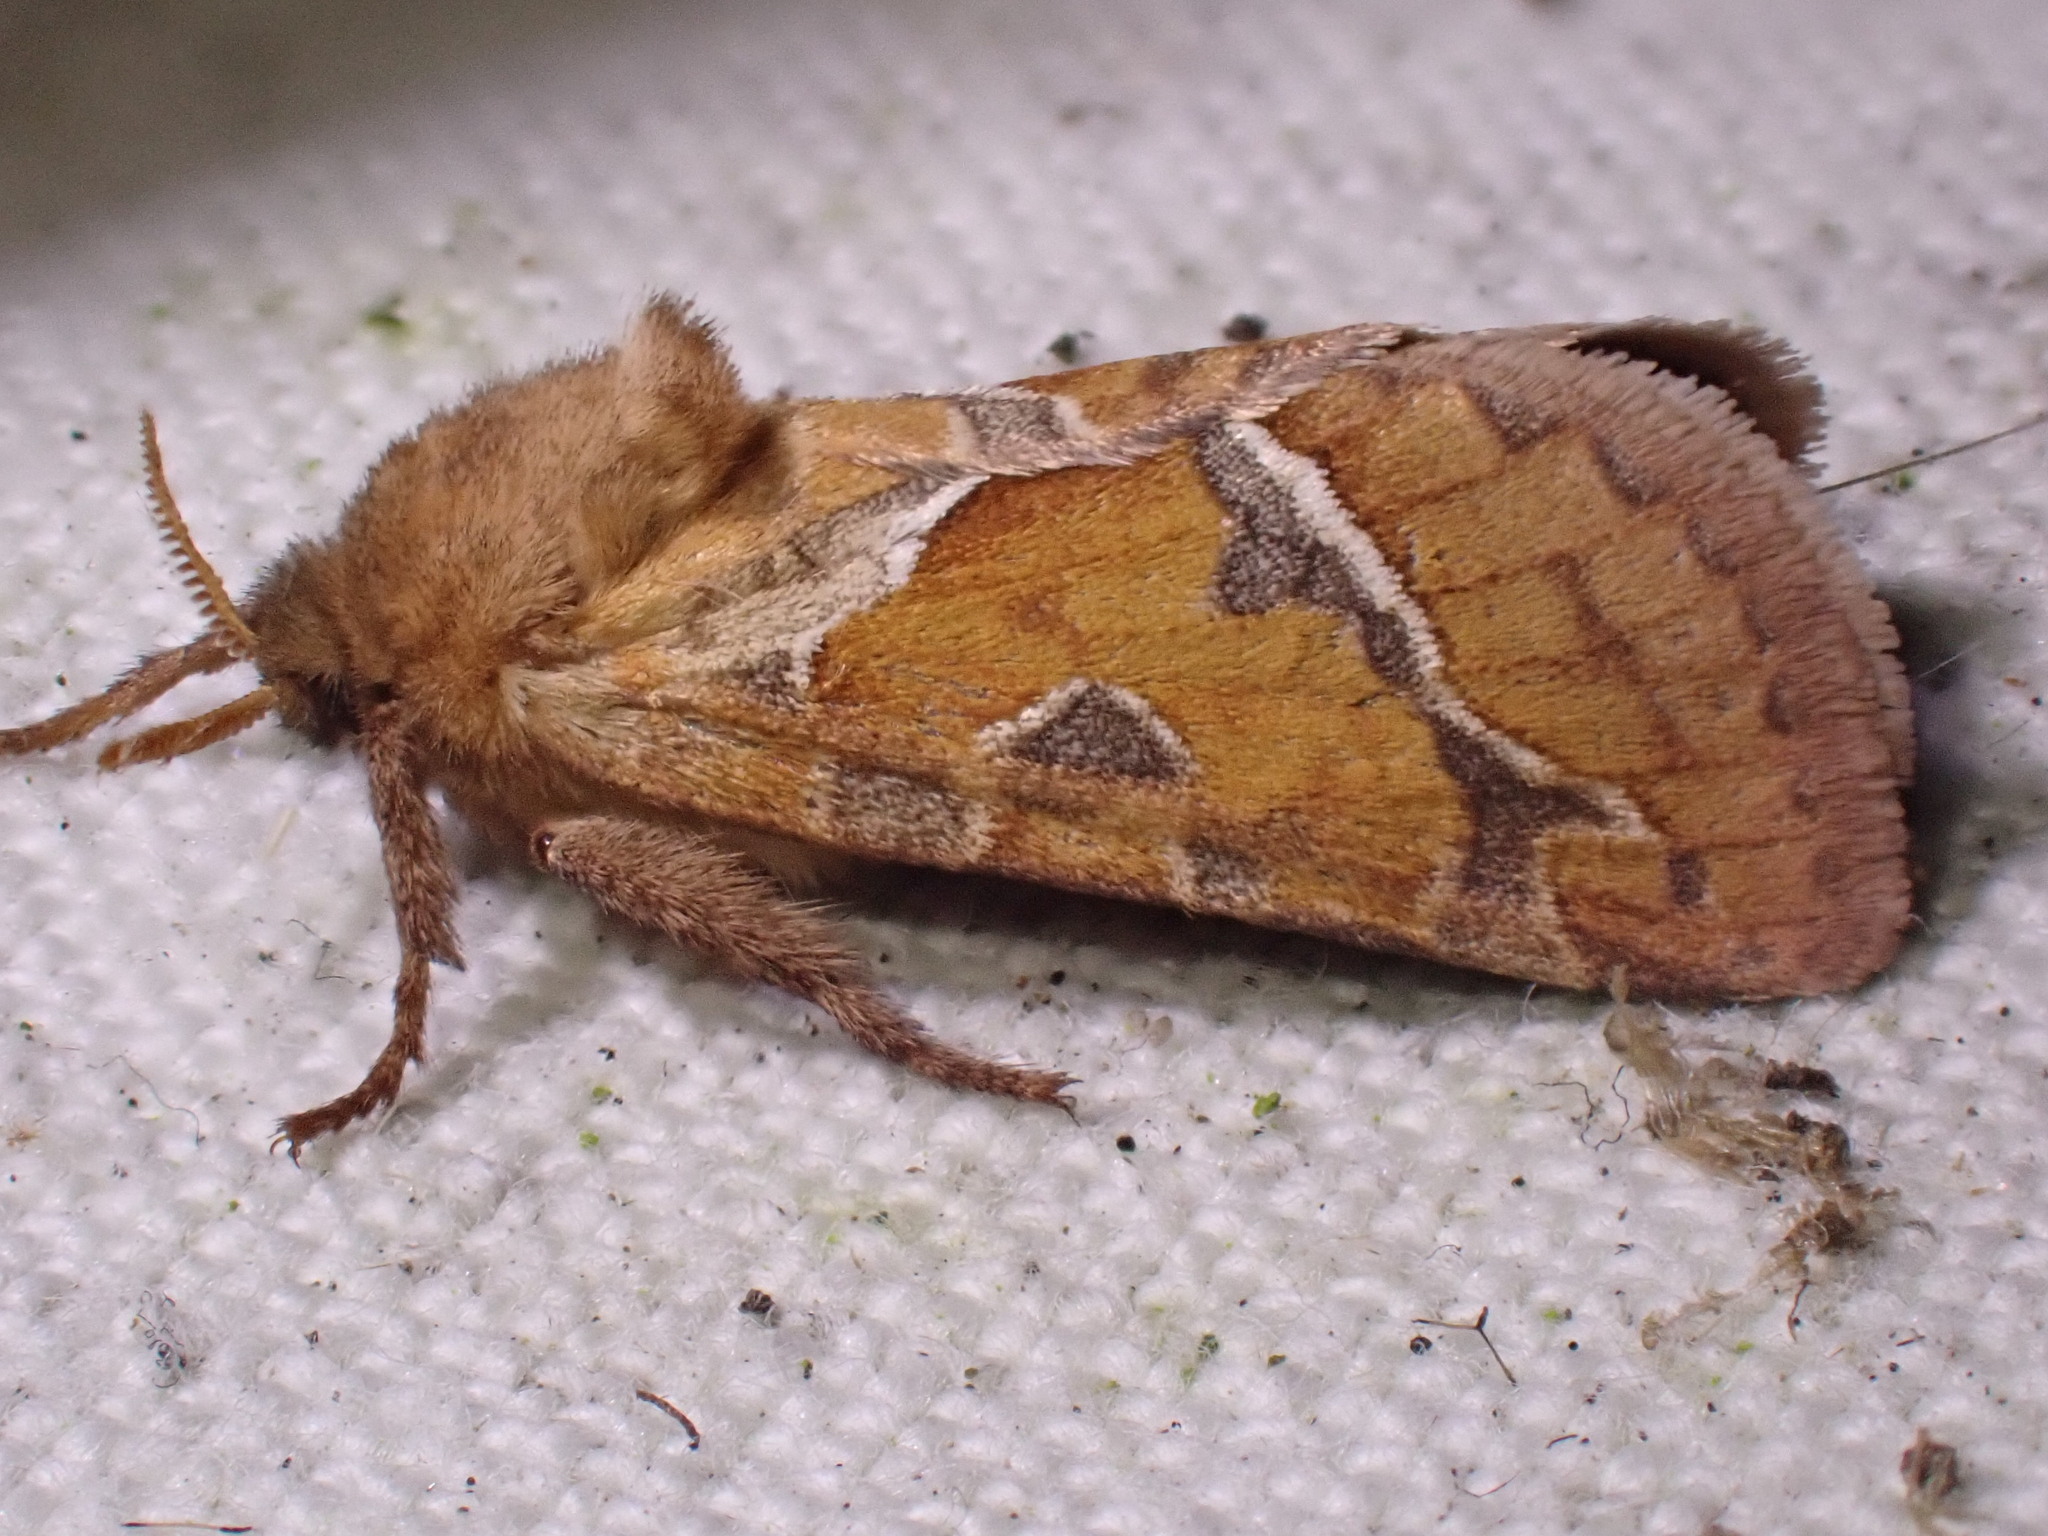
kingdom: Animalia
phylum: Arthropoda
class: Insecta
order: Lepidoptera
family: Hepialidae
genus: Triodia
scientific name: Triodia sylvina
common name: Orange swift
